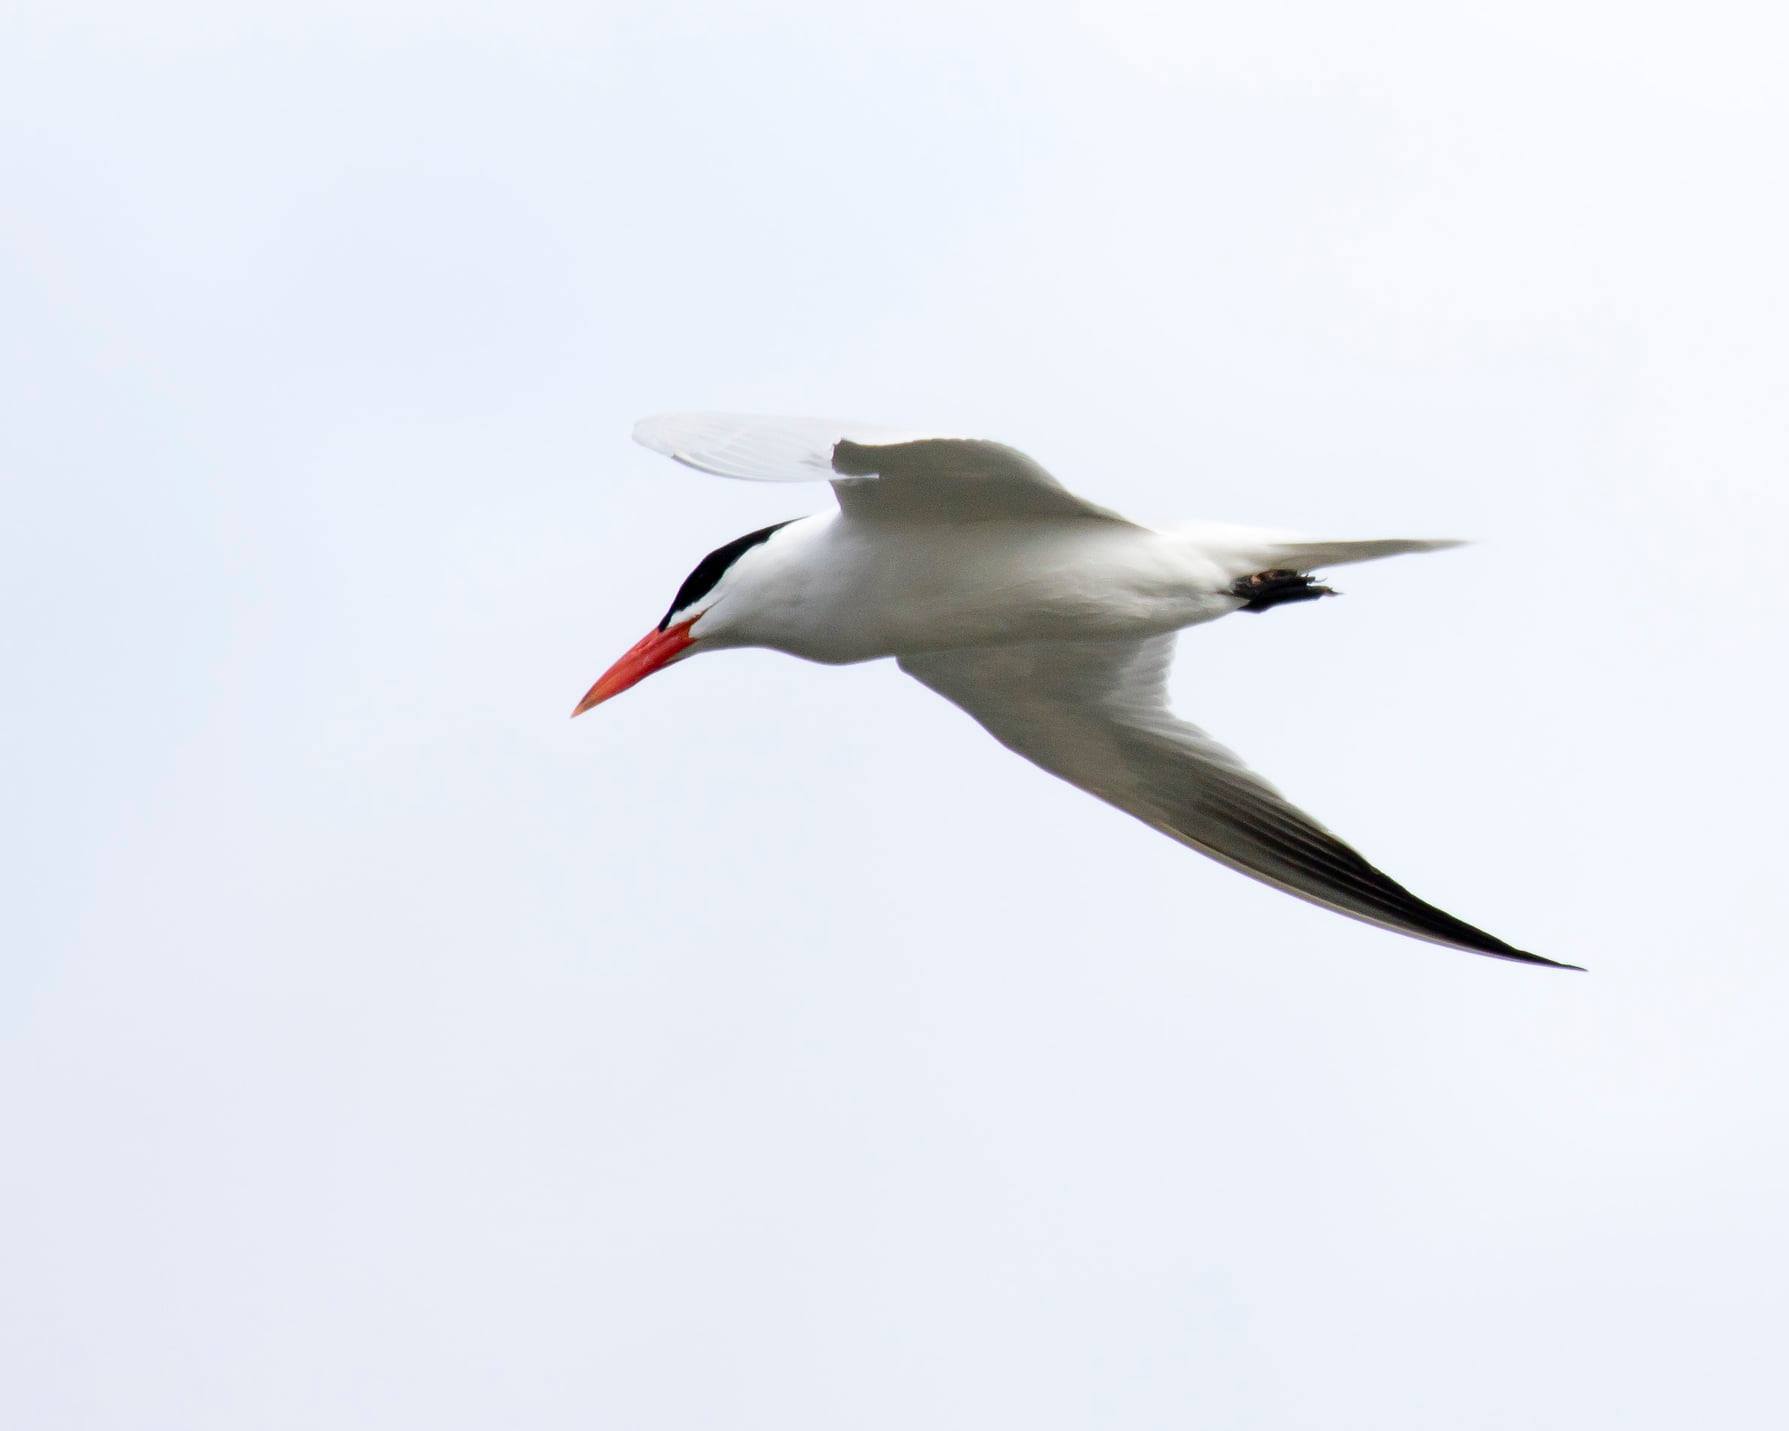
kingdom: Animalia
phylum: Chordata
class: Aves
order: Charadriiformes
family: Laridae
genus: Hydroprogne
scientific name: Hydroprogne caspia
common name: Caspian tern
